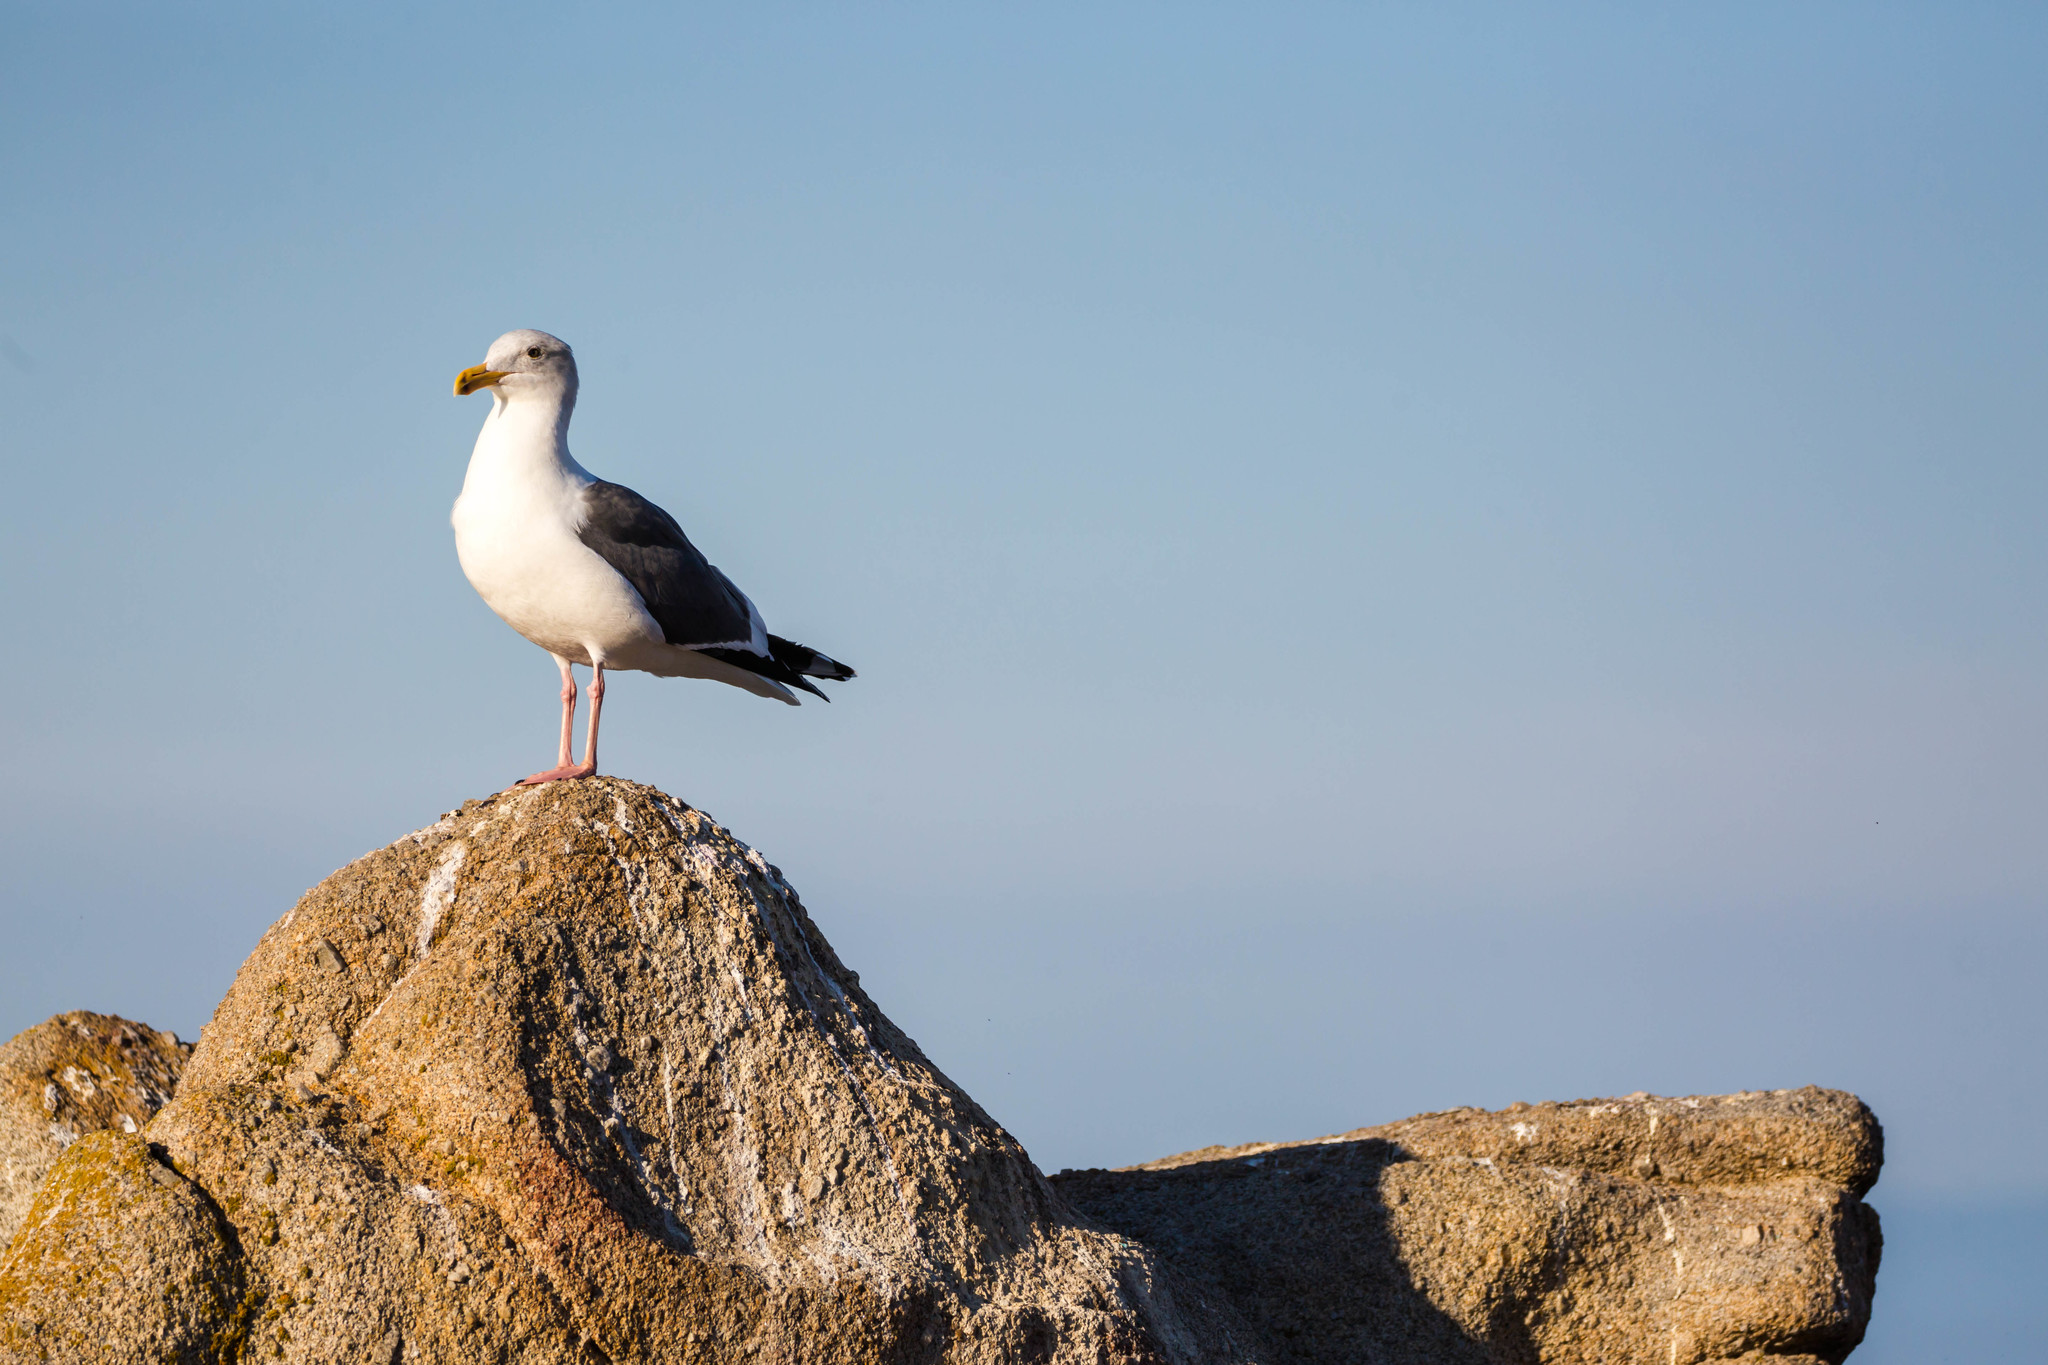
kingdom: Animalia
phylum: Chordata
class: Aves
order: Charadriiformes
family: Laridae
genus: Larus
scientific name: Larus occidentalis
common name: Western gull
